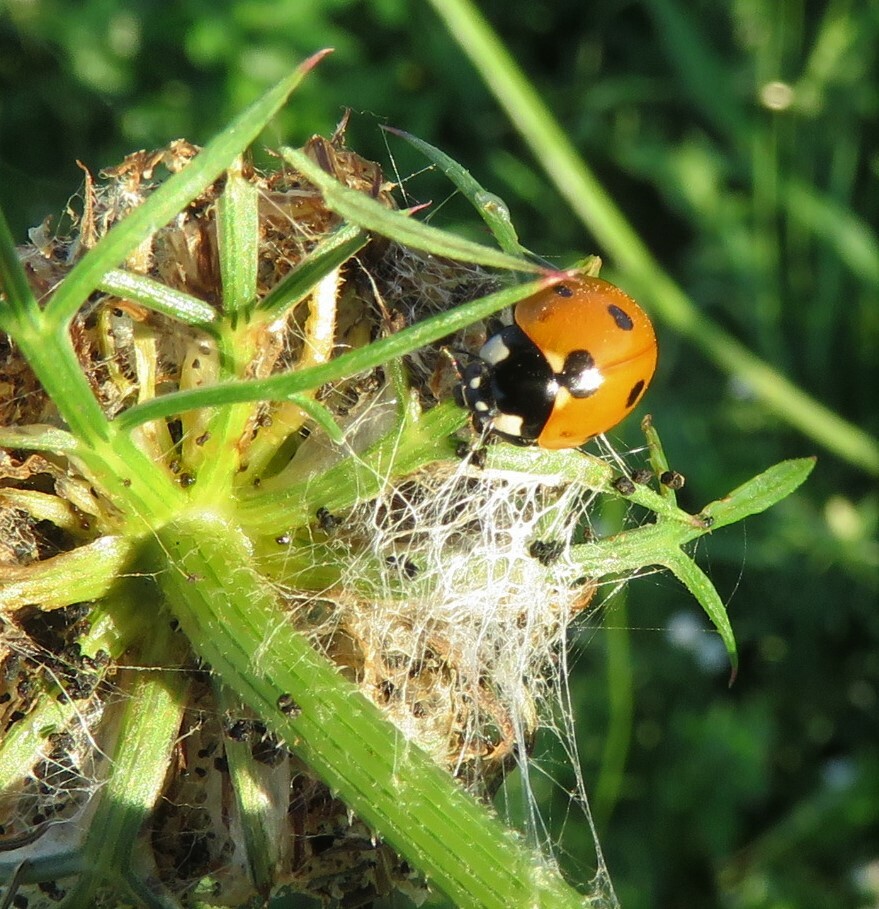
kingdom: Animalia
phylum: Arthropoda
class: Insecta
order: Coleoptera
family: Coccinellidae
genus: Coccinella
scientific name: Coccinella septempunctata
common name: Sevenspotted lady beetle
